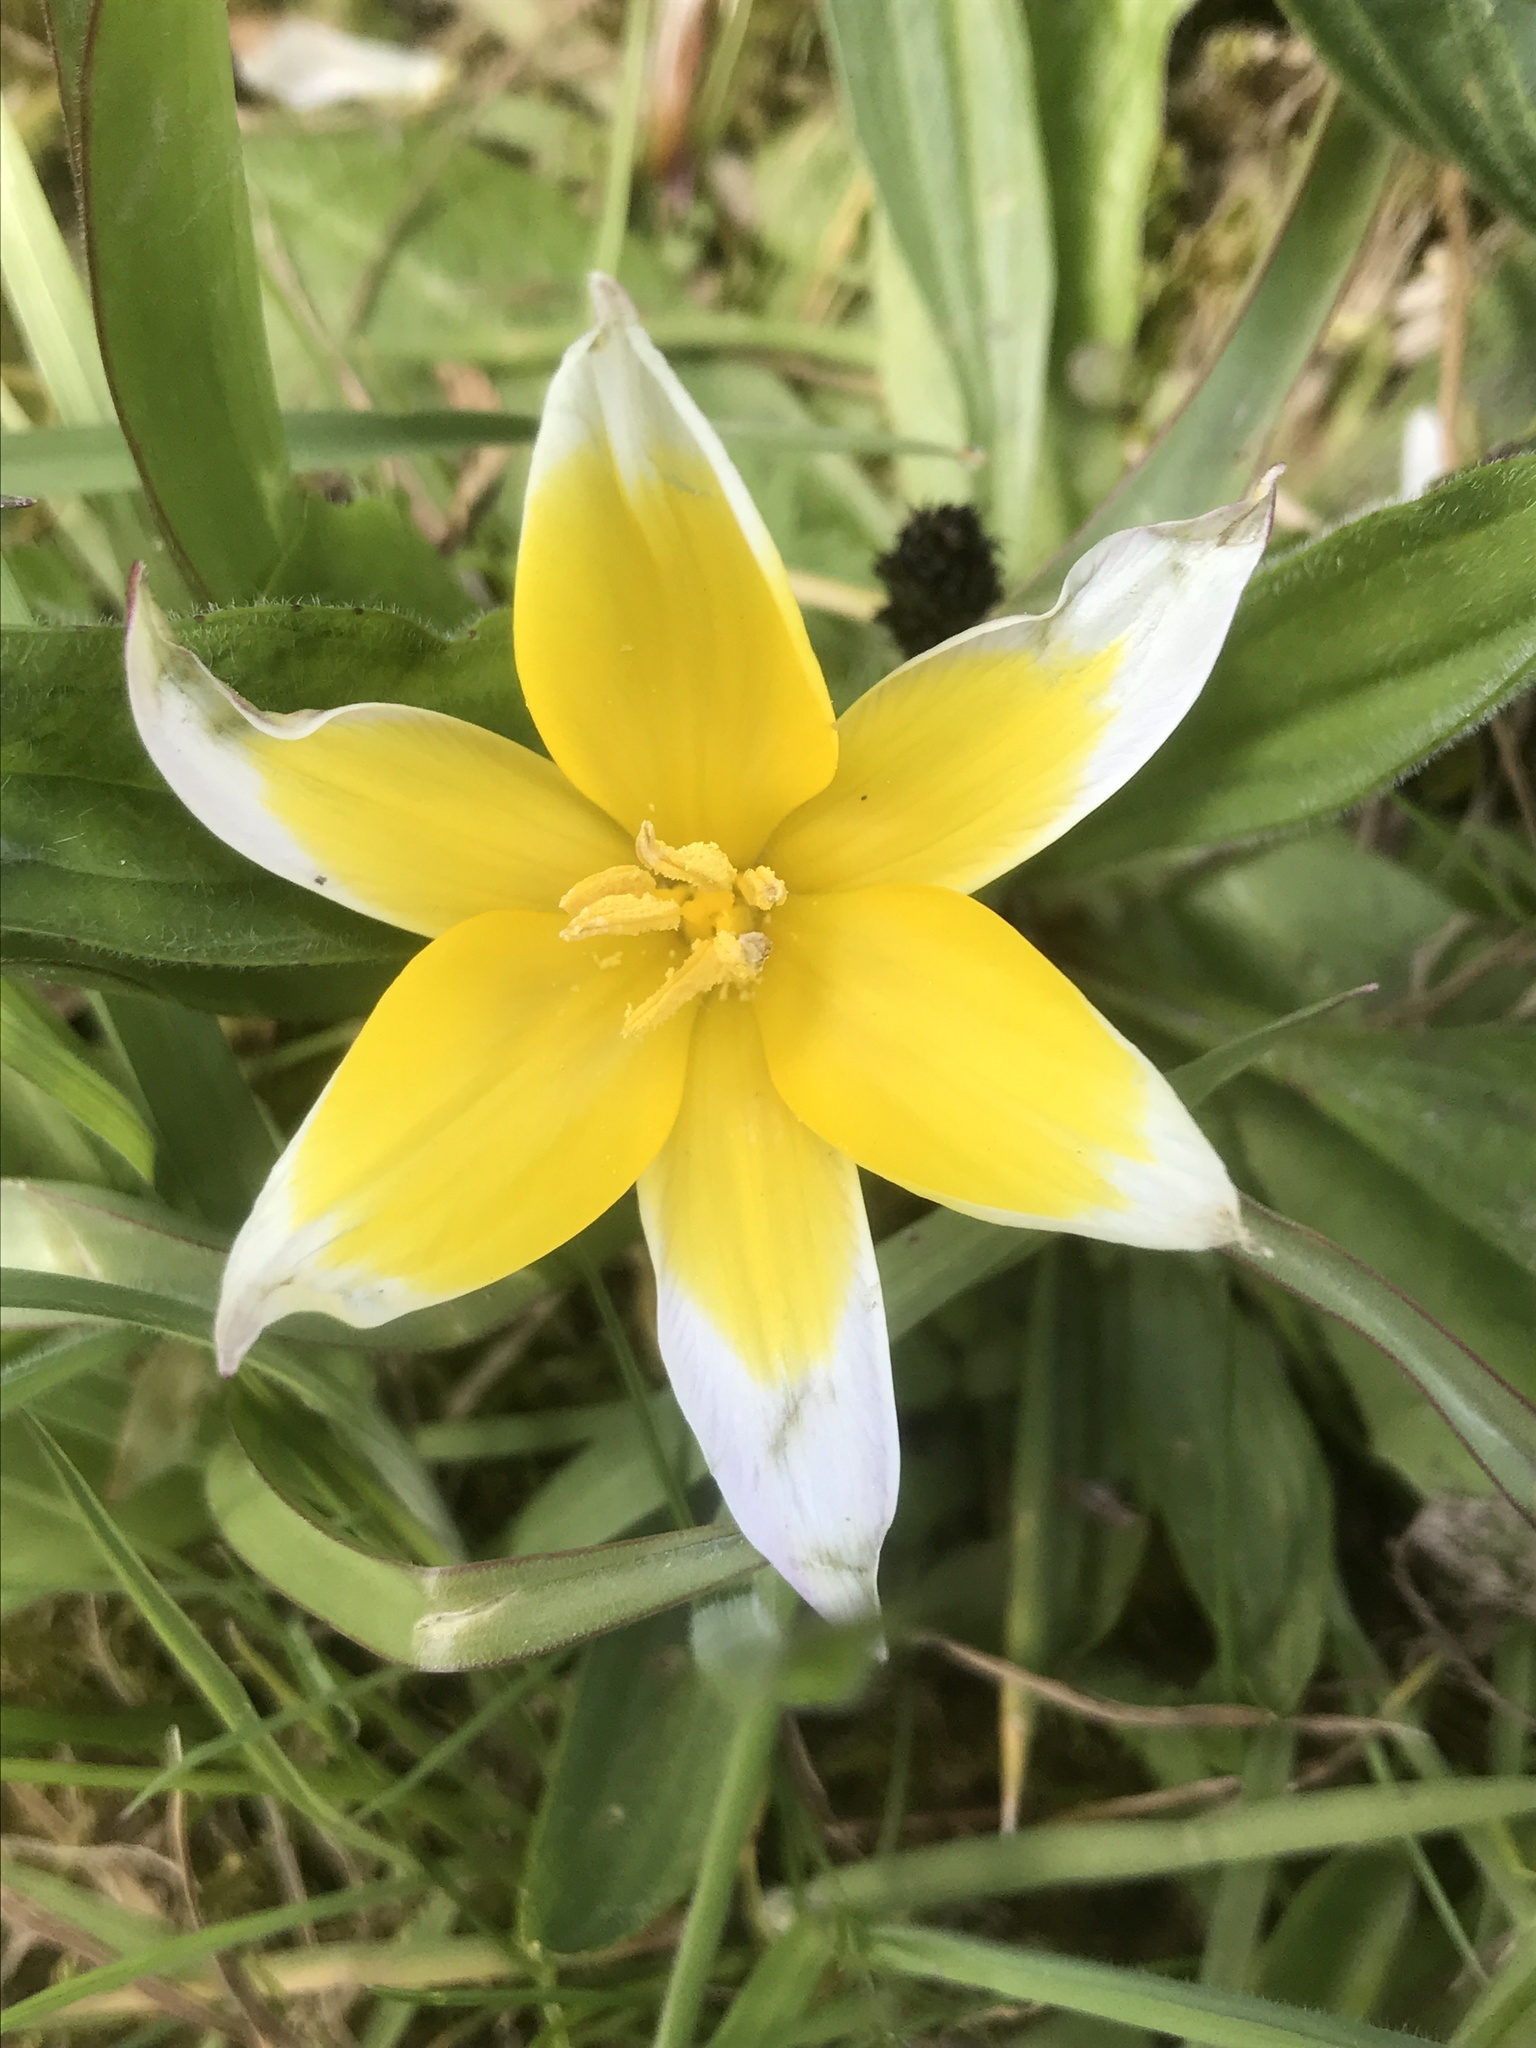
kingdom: Plantae
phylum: Tracheophyta
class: Liliopsida
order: Liliales
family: Liliaceae
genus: Tulipa
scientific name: Tulipa urumiensis
